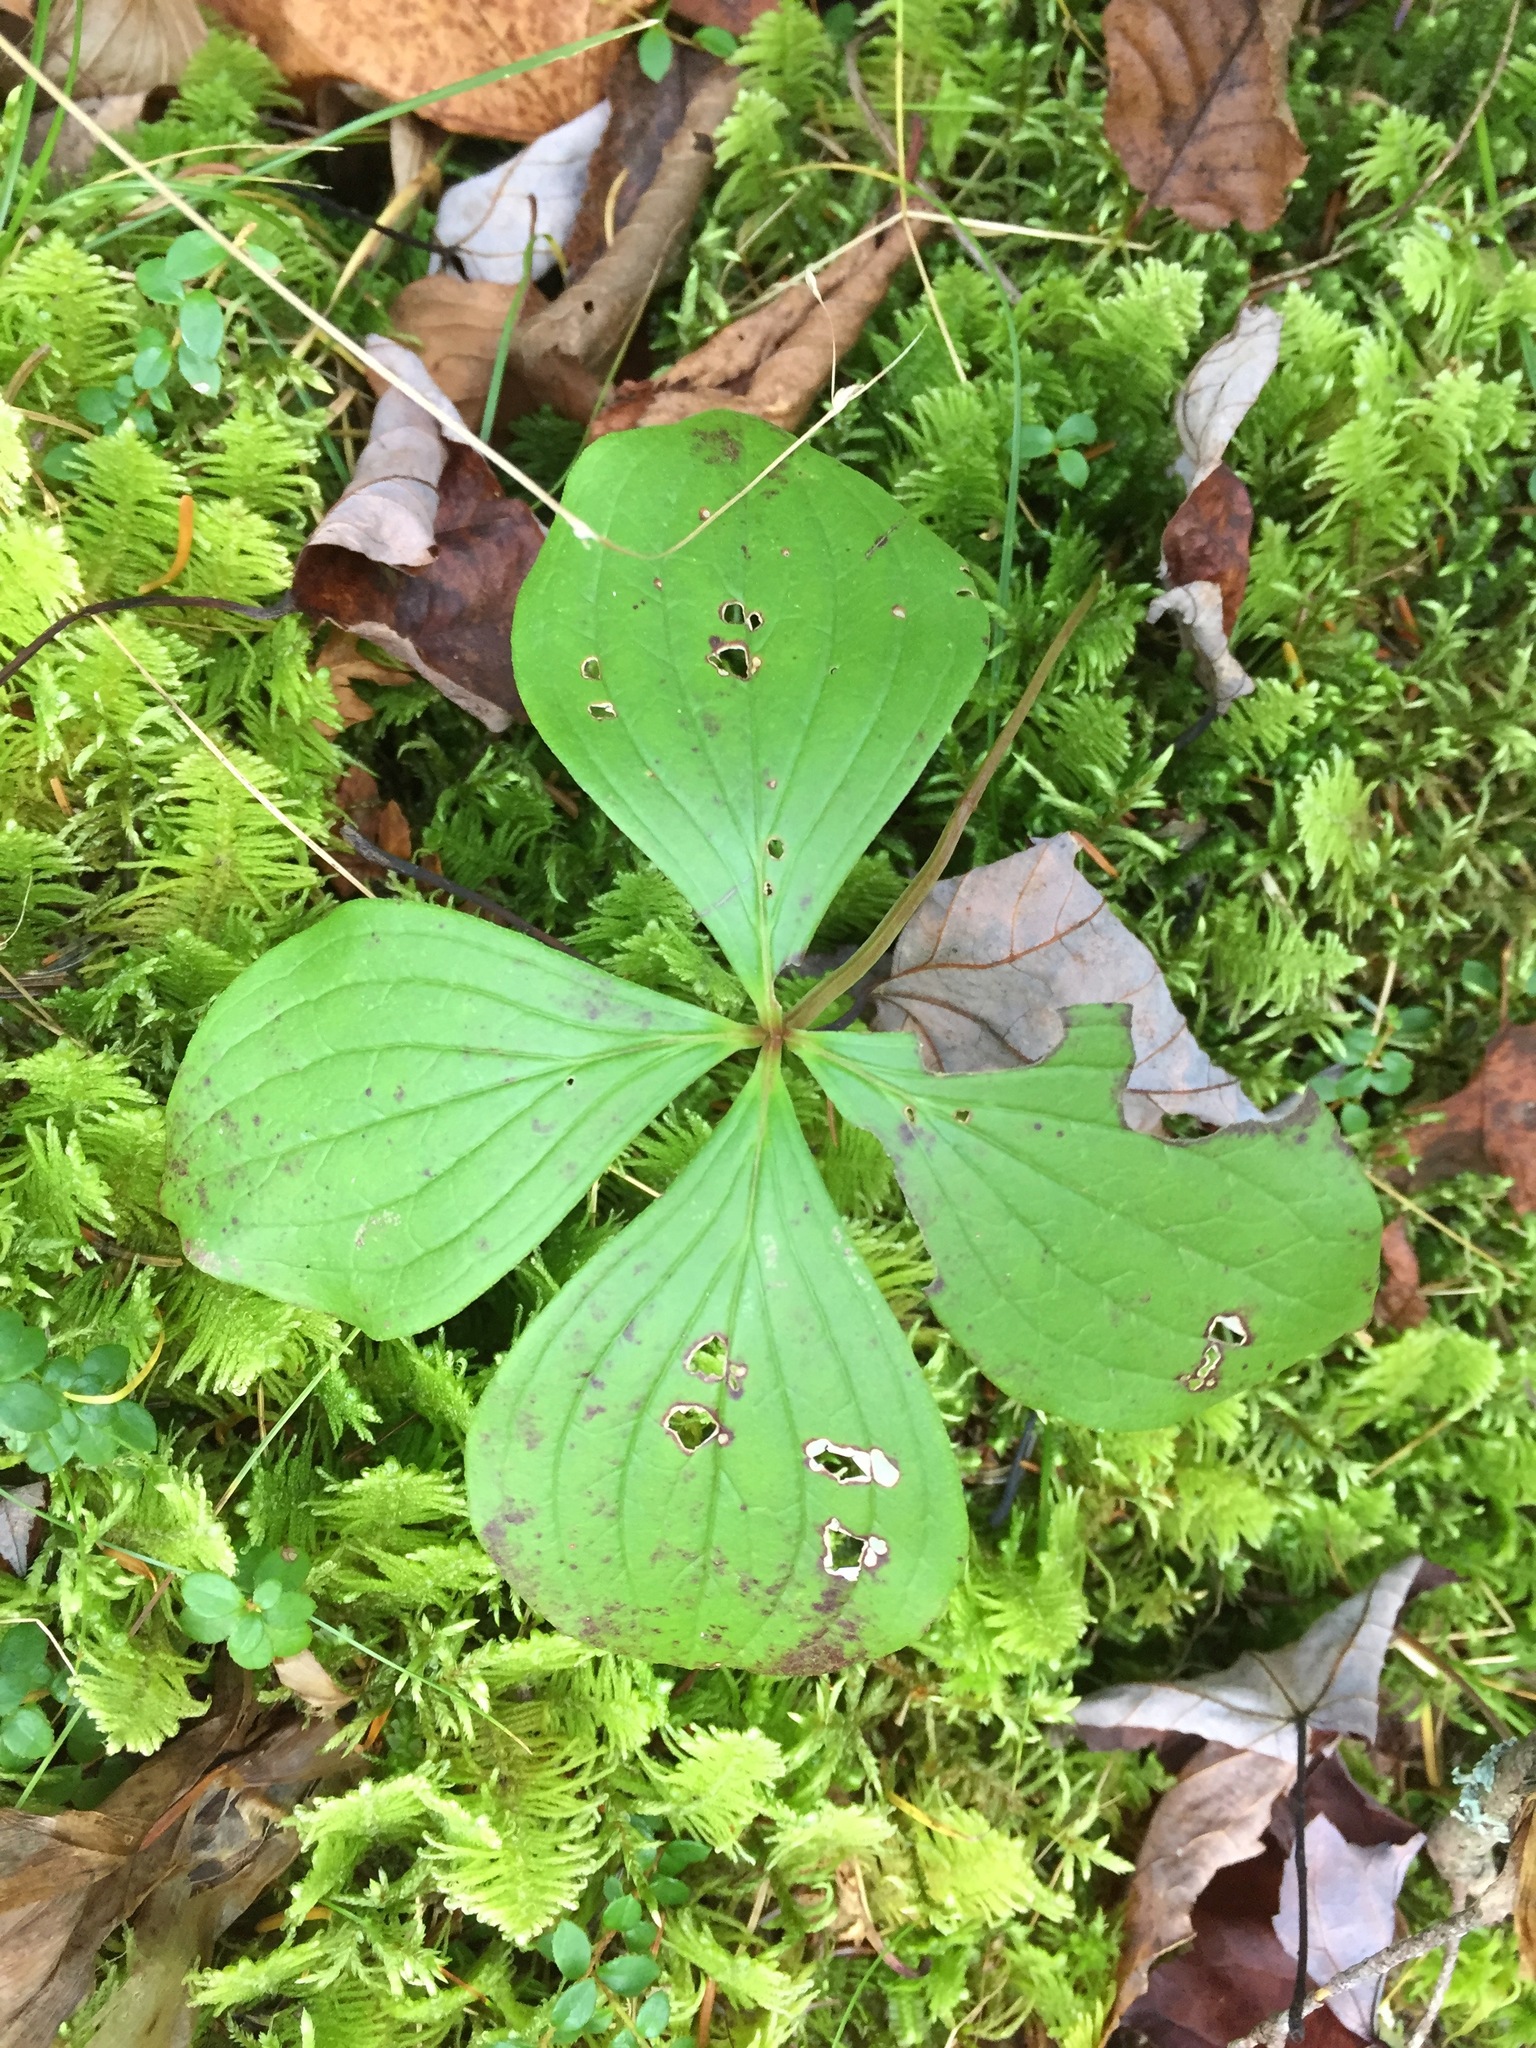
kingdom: Plantae
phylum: Tracheophyta
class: Magnoliopsida
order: Cornales
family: Cornaceae
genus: Cornus
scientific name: Cornus canadensis
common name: Creeping dogwood
